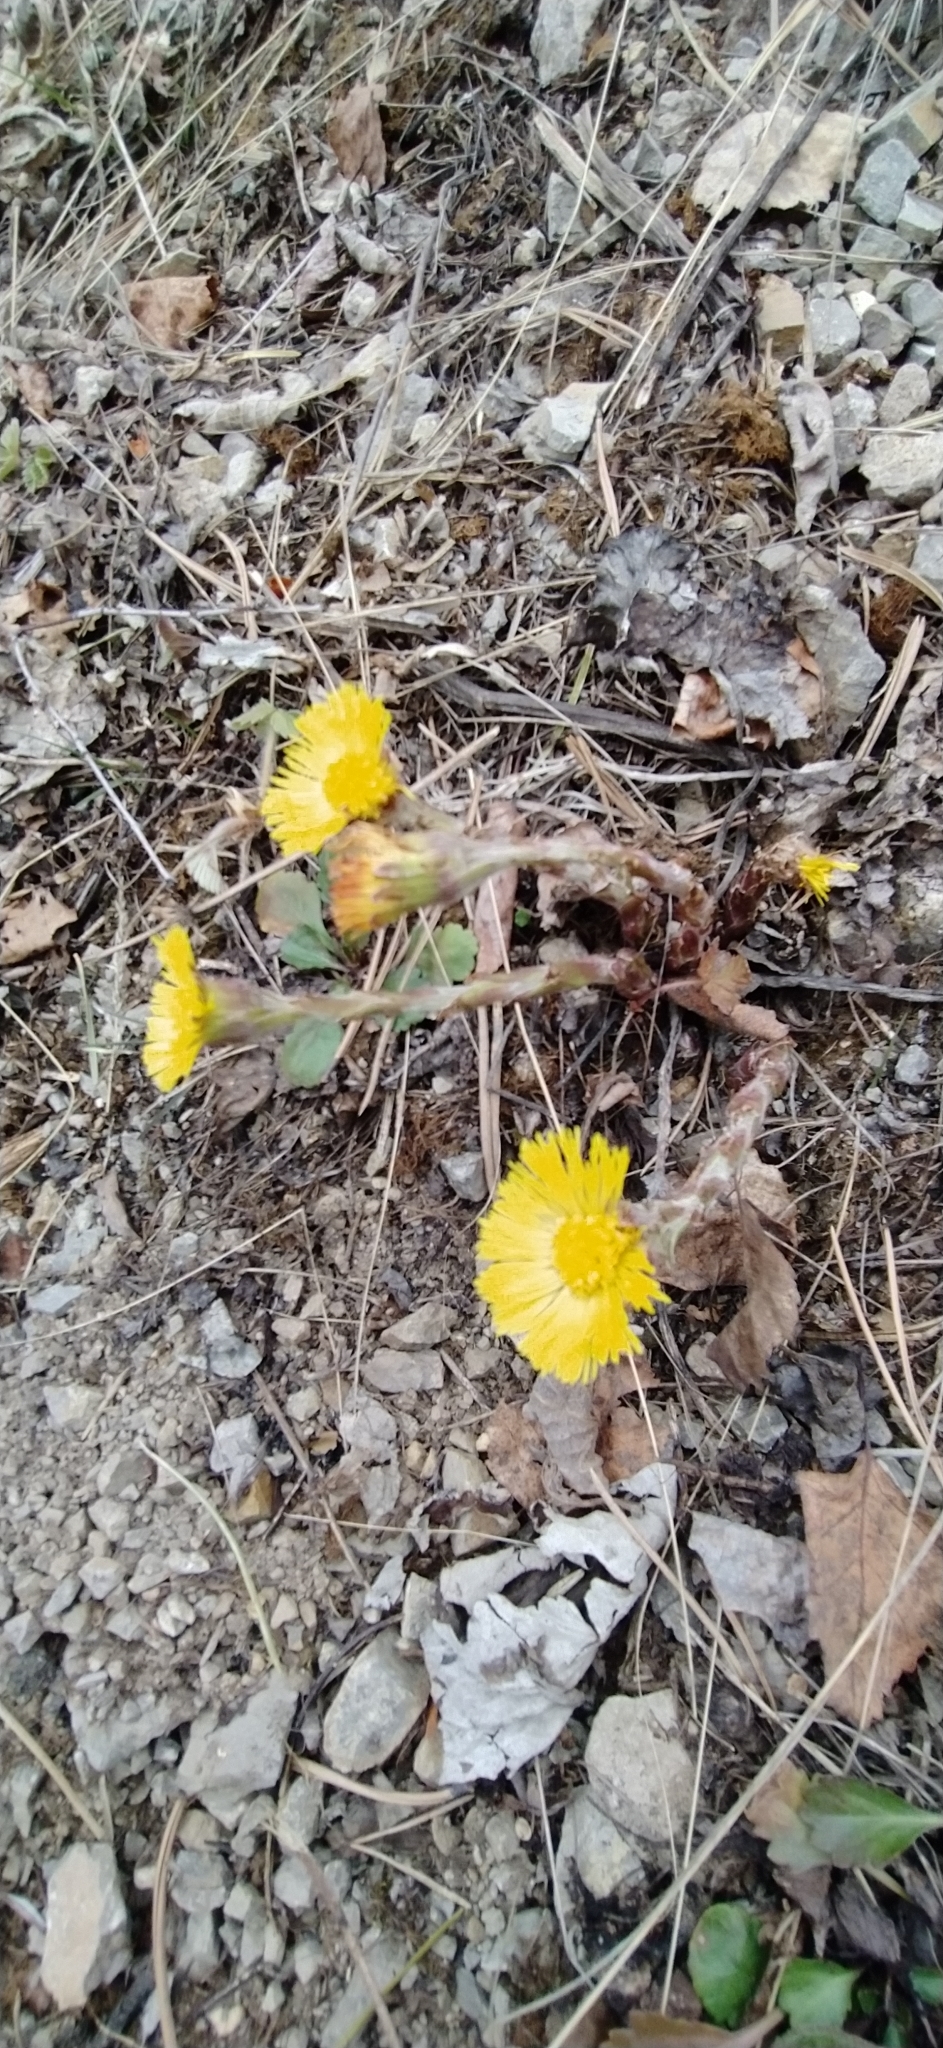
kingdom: Plantae
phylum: Tracheophyta
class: Magnoliopsida
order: Asterales
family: Asteraceae
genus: Tussilago
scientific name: Tussilago farfara
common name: Coltsfoot
